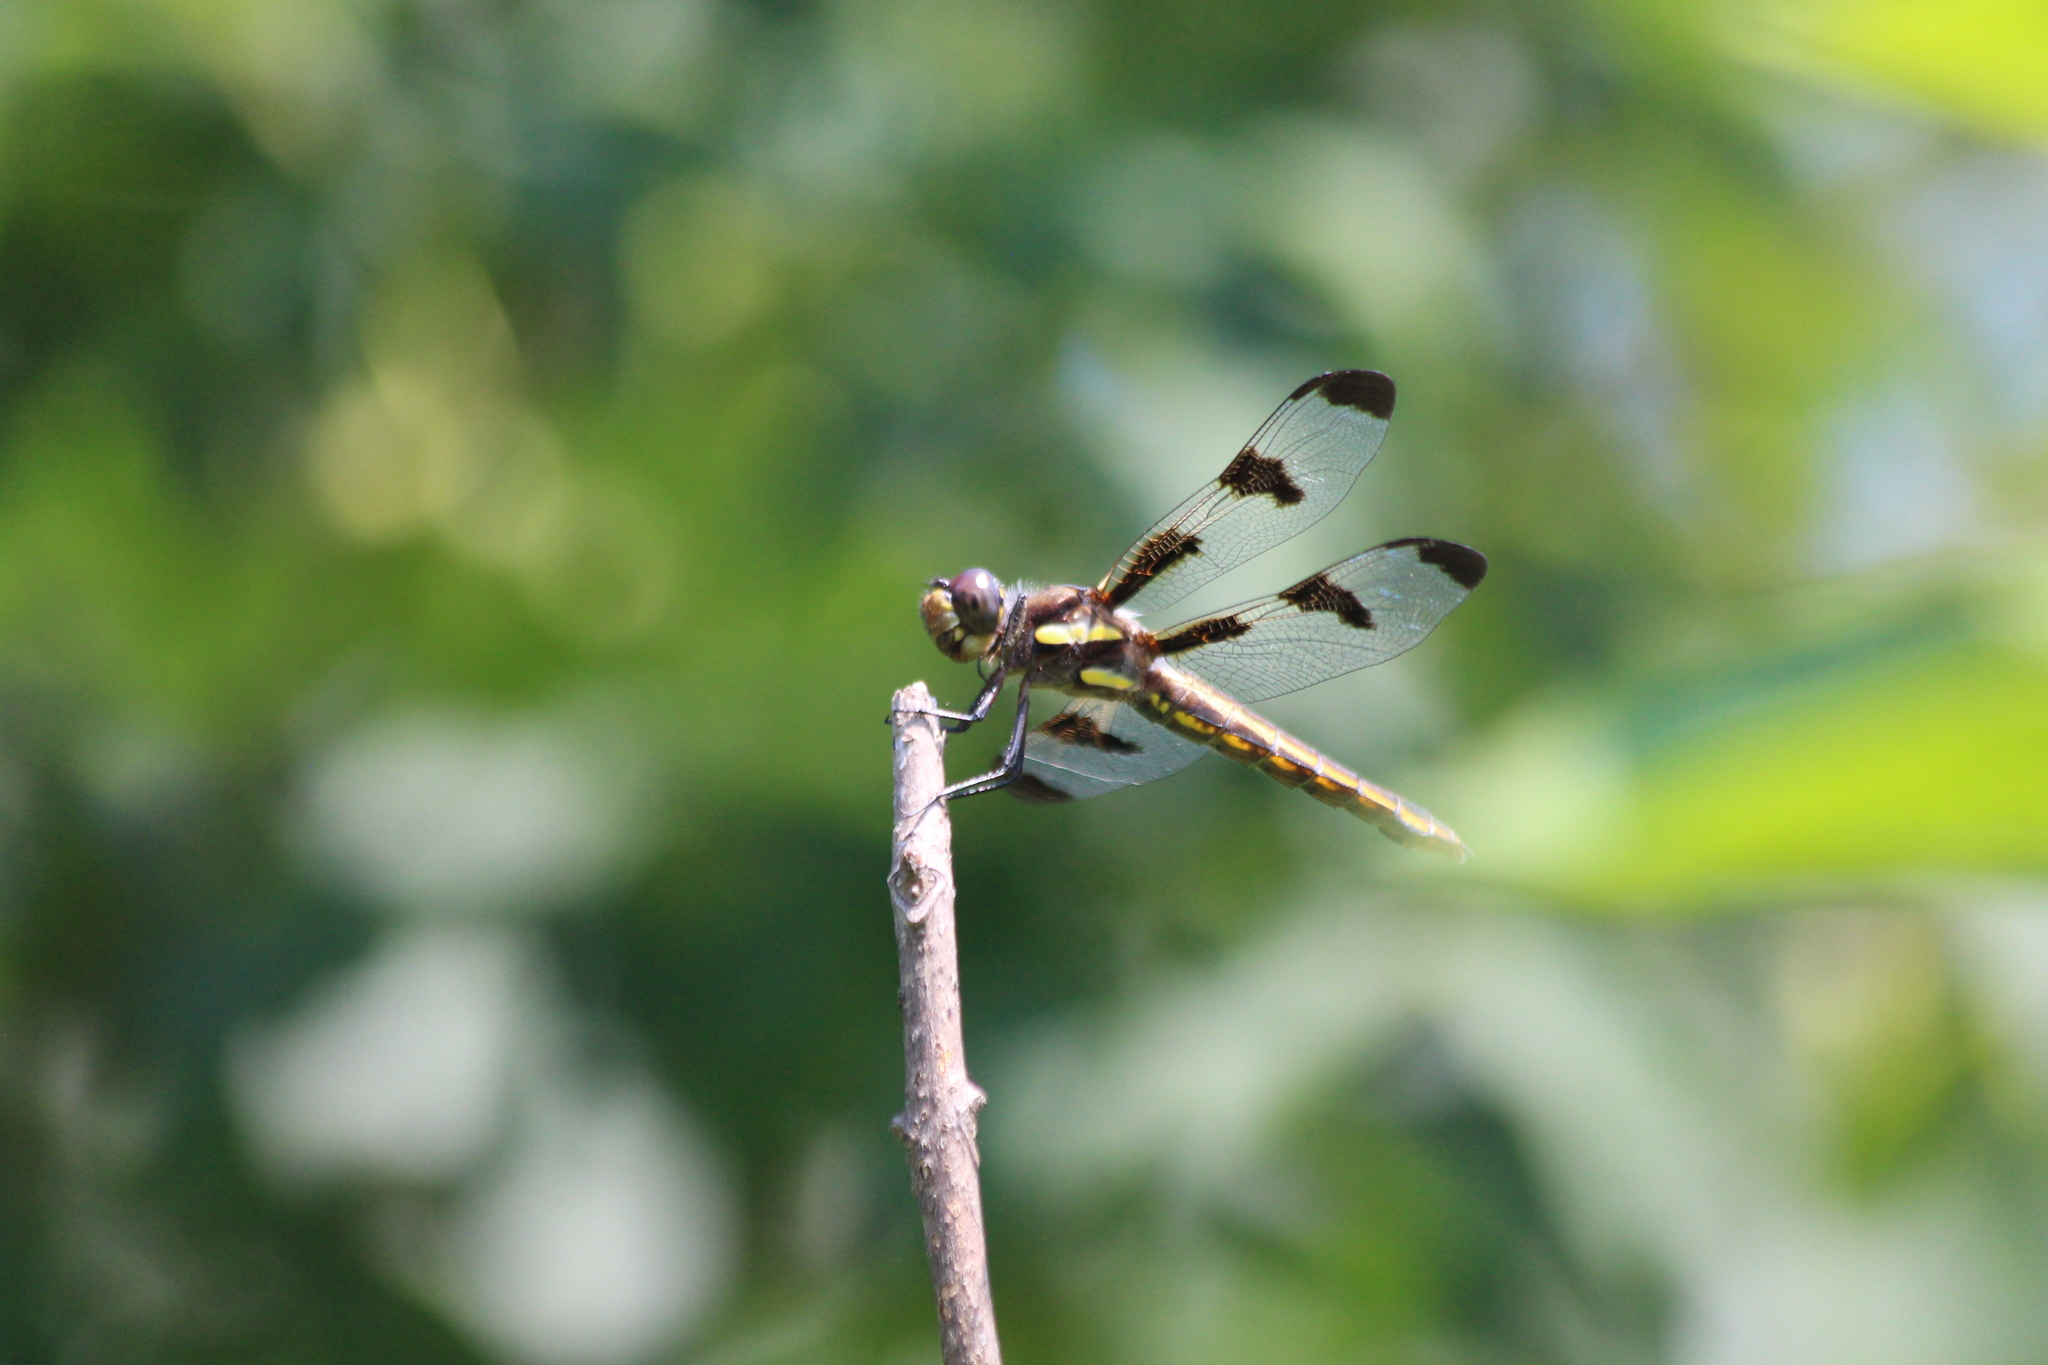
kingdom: Animalia
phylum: Arthropoda
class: Insecta
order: Odonata
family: Libellulidae
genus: Libellula
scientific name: Libellula pulchella
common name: Twelve-spotted skimmer
